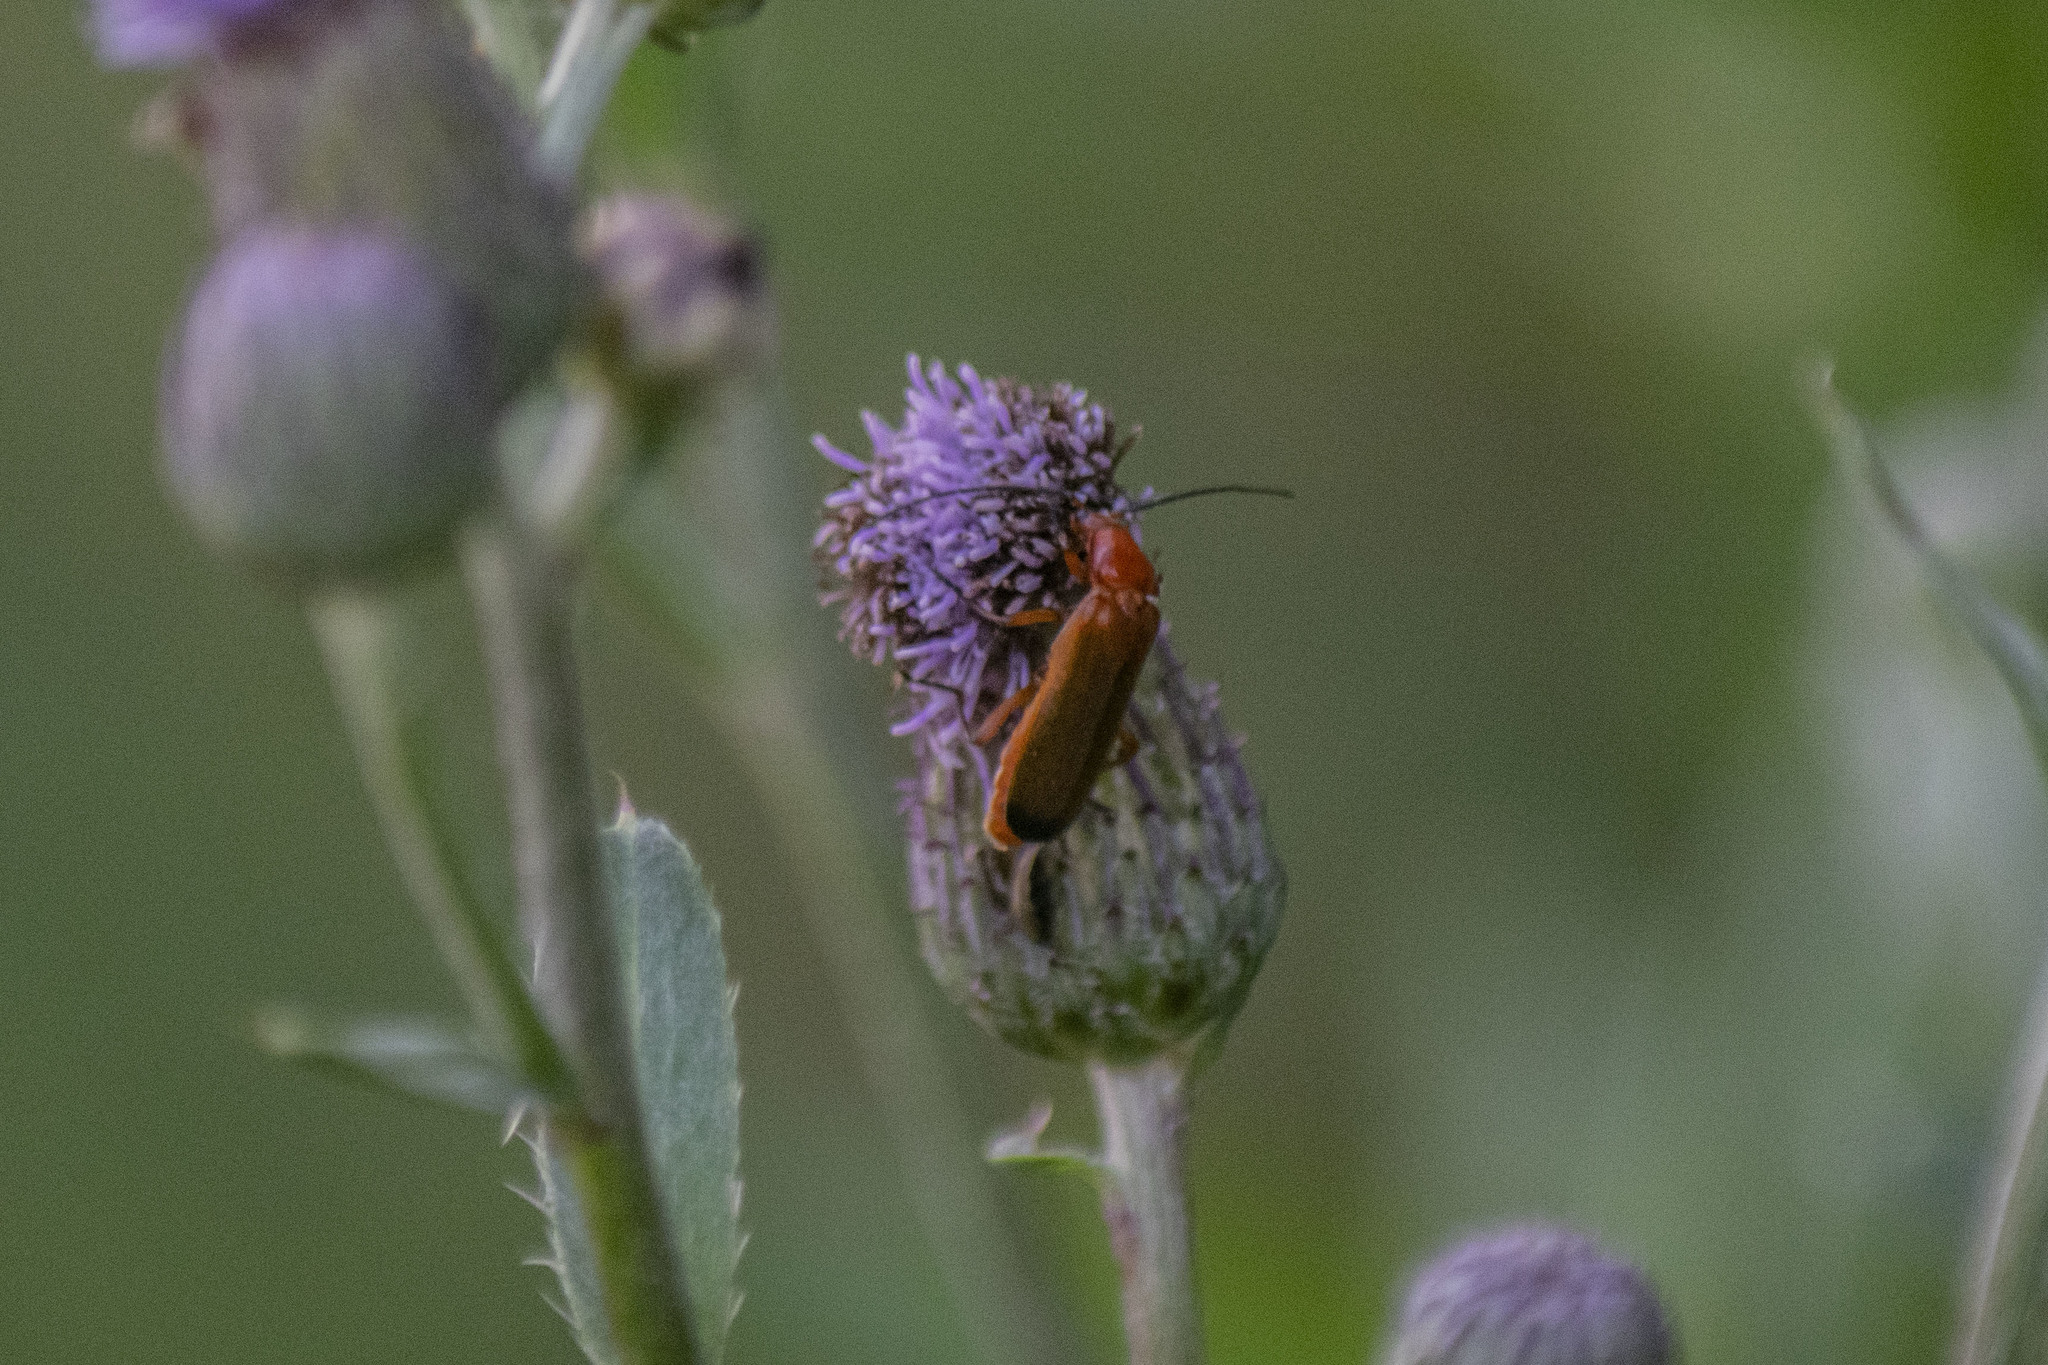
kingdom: Animalia
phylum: Arthropoda
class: Insecta
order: Coleoptera
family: Cantharidae
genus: Rhagonycha
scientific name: Rhagonycha fulva
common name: Common red soldier beetle
